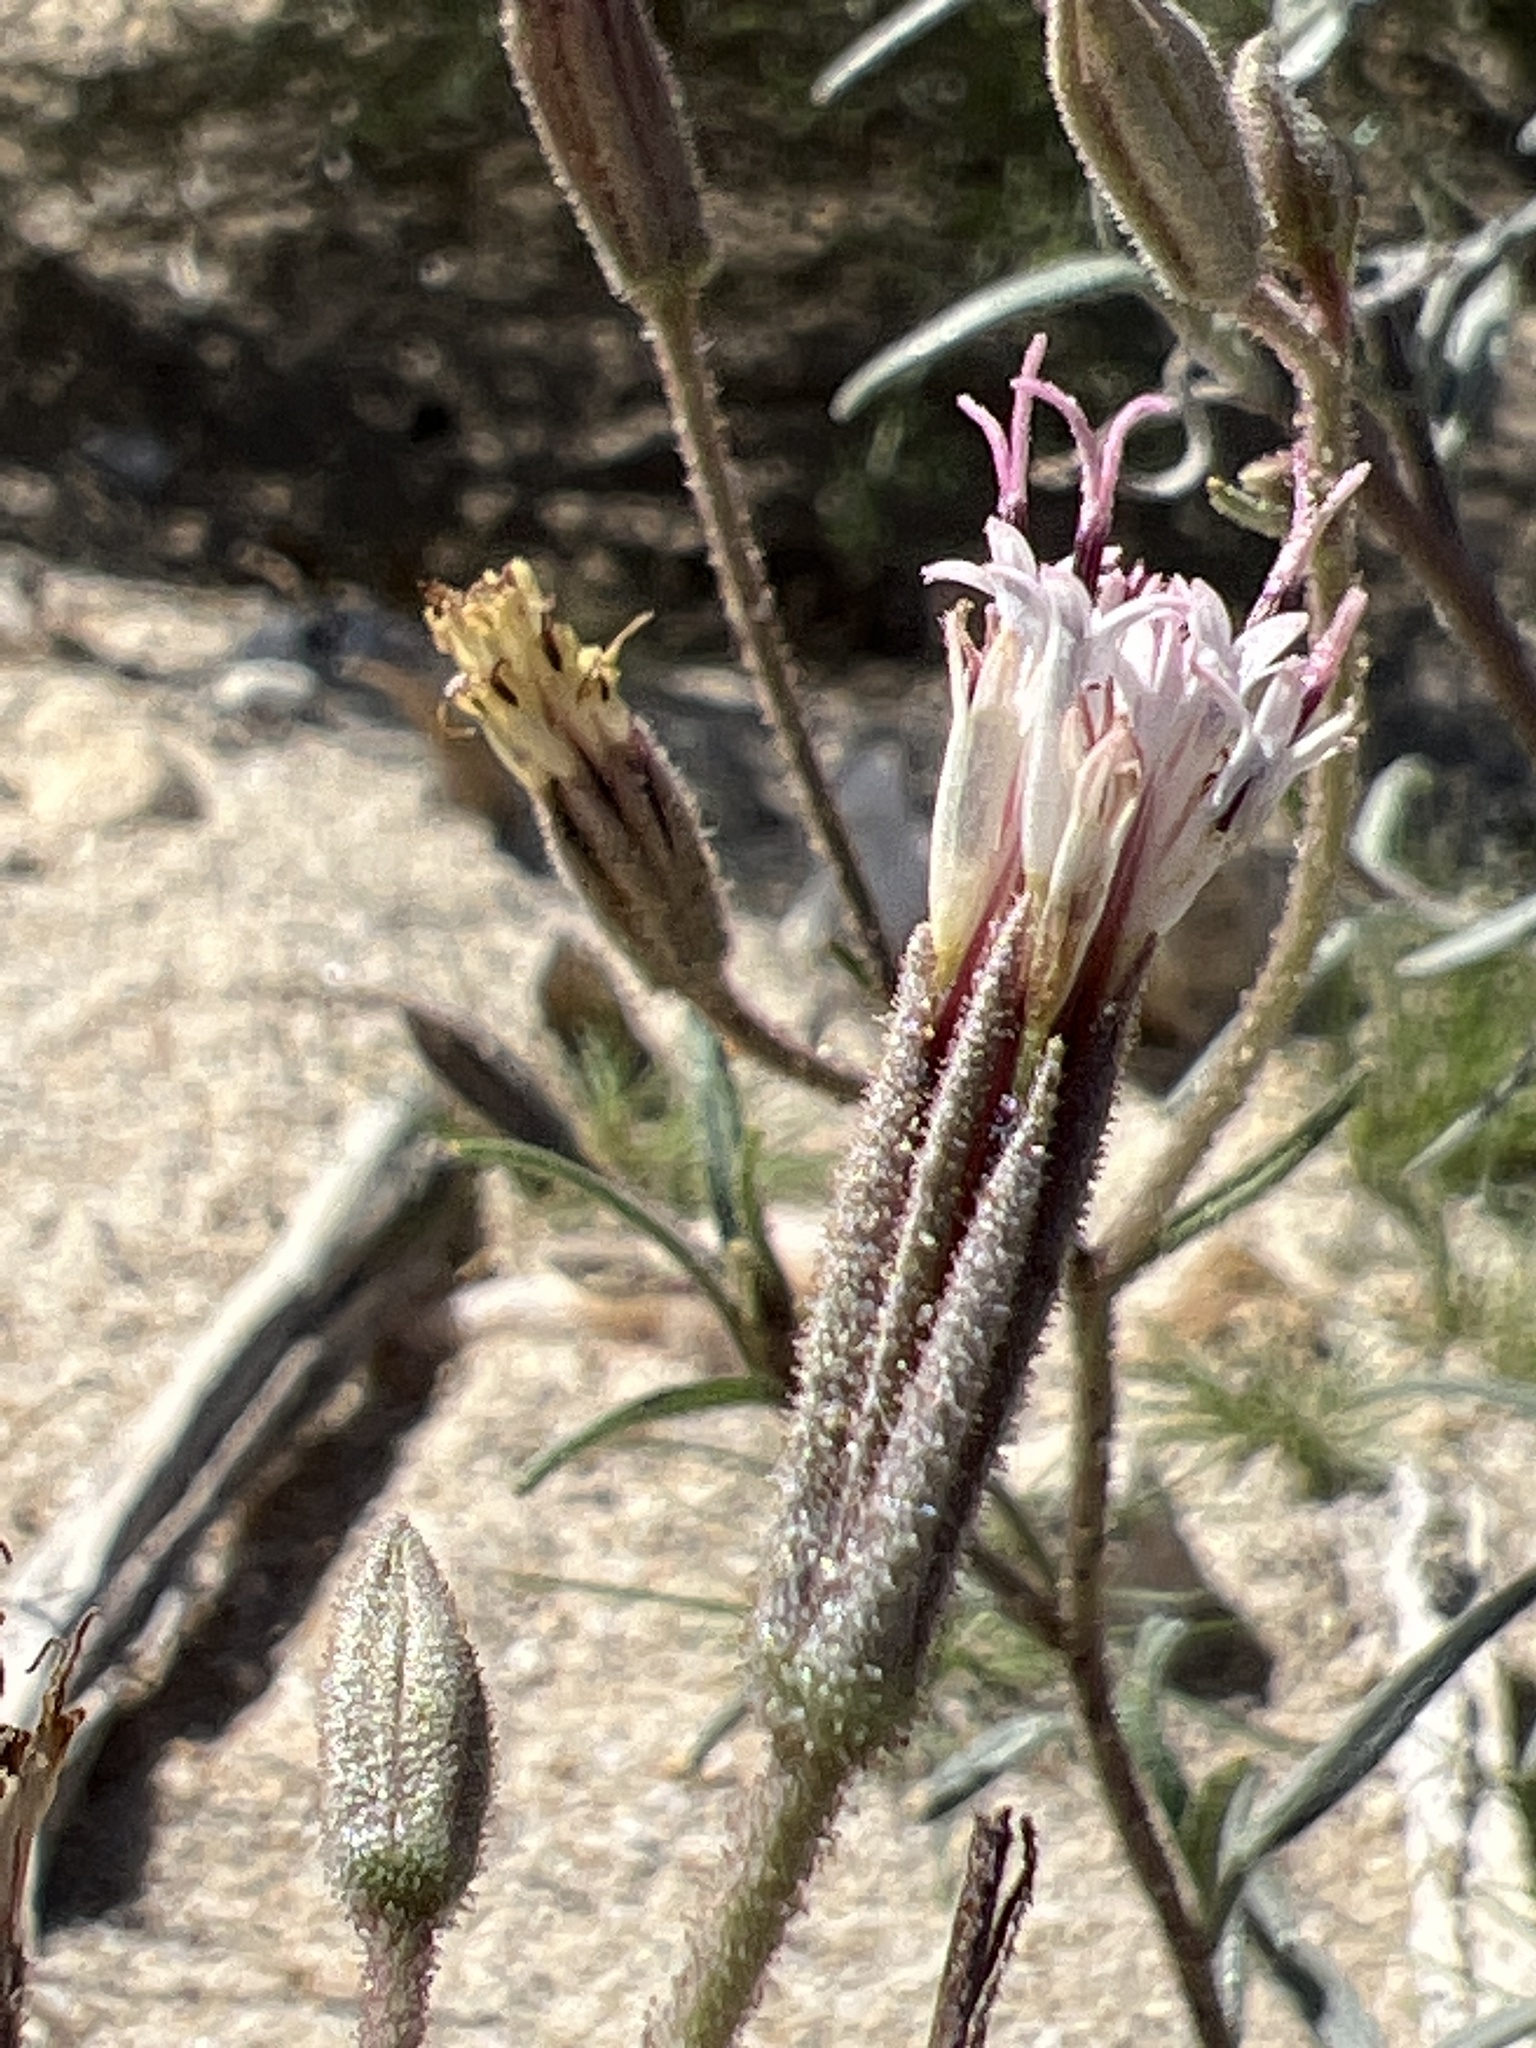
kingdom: Plantae
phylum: Tracheophyta
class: Magnoliopsida
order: Asterales
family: Asteraceae
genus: Palafoxia
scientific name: Palafoxia arida
